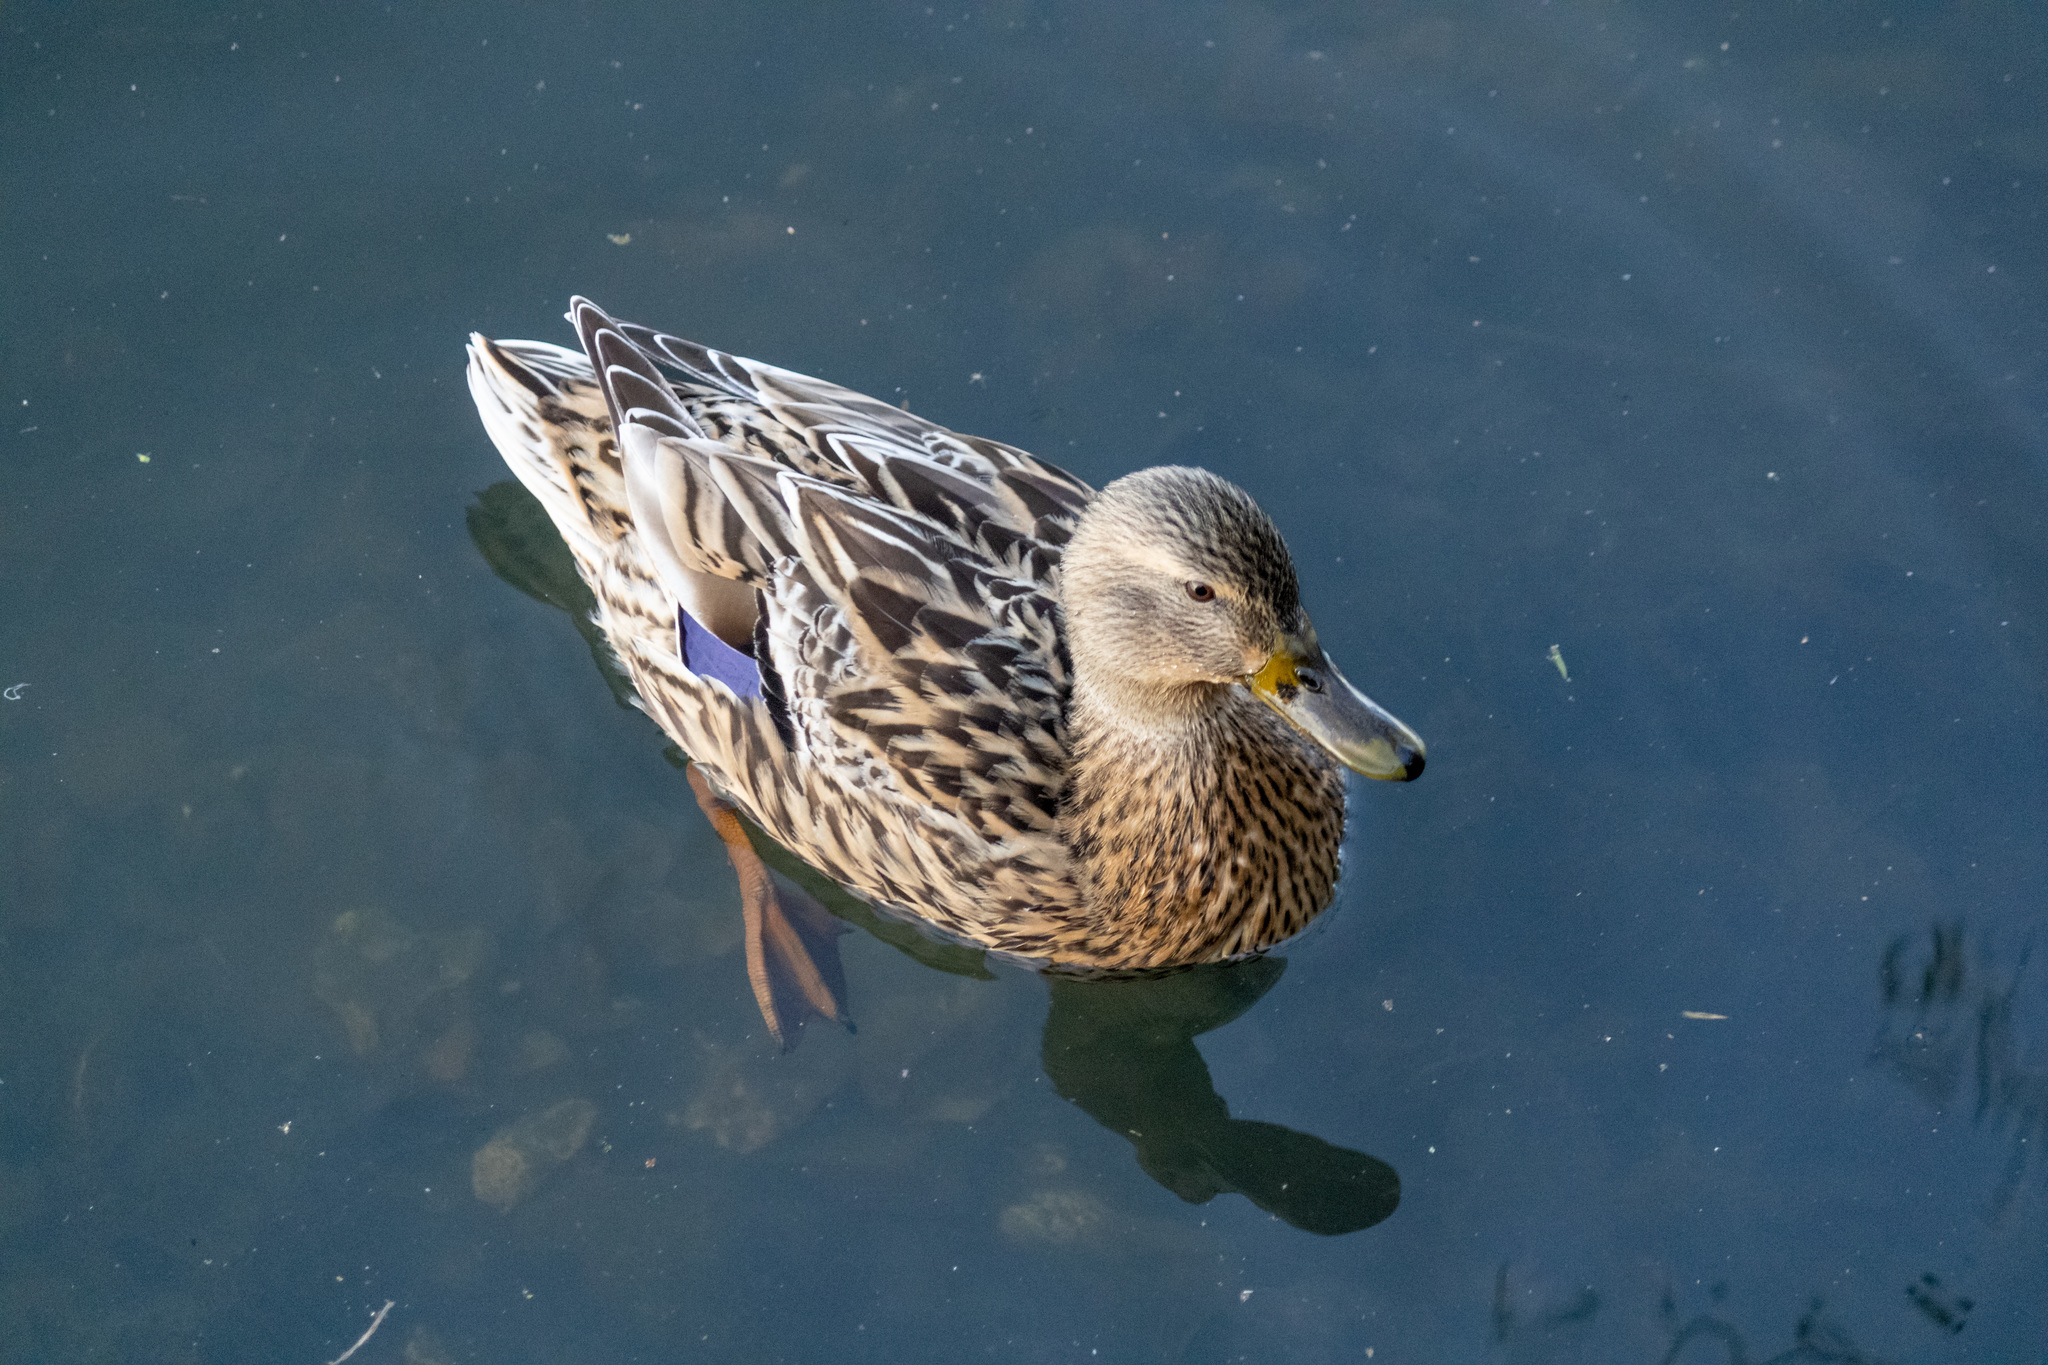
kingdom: Animalia
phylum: Chordata
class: Aves
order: Anseriformes
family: Anatidae
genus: Anas
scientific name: Anas platyrhynchos
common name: Mallard
